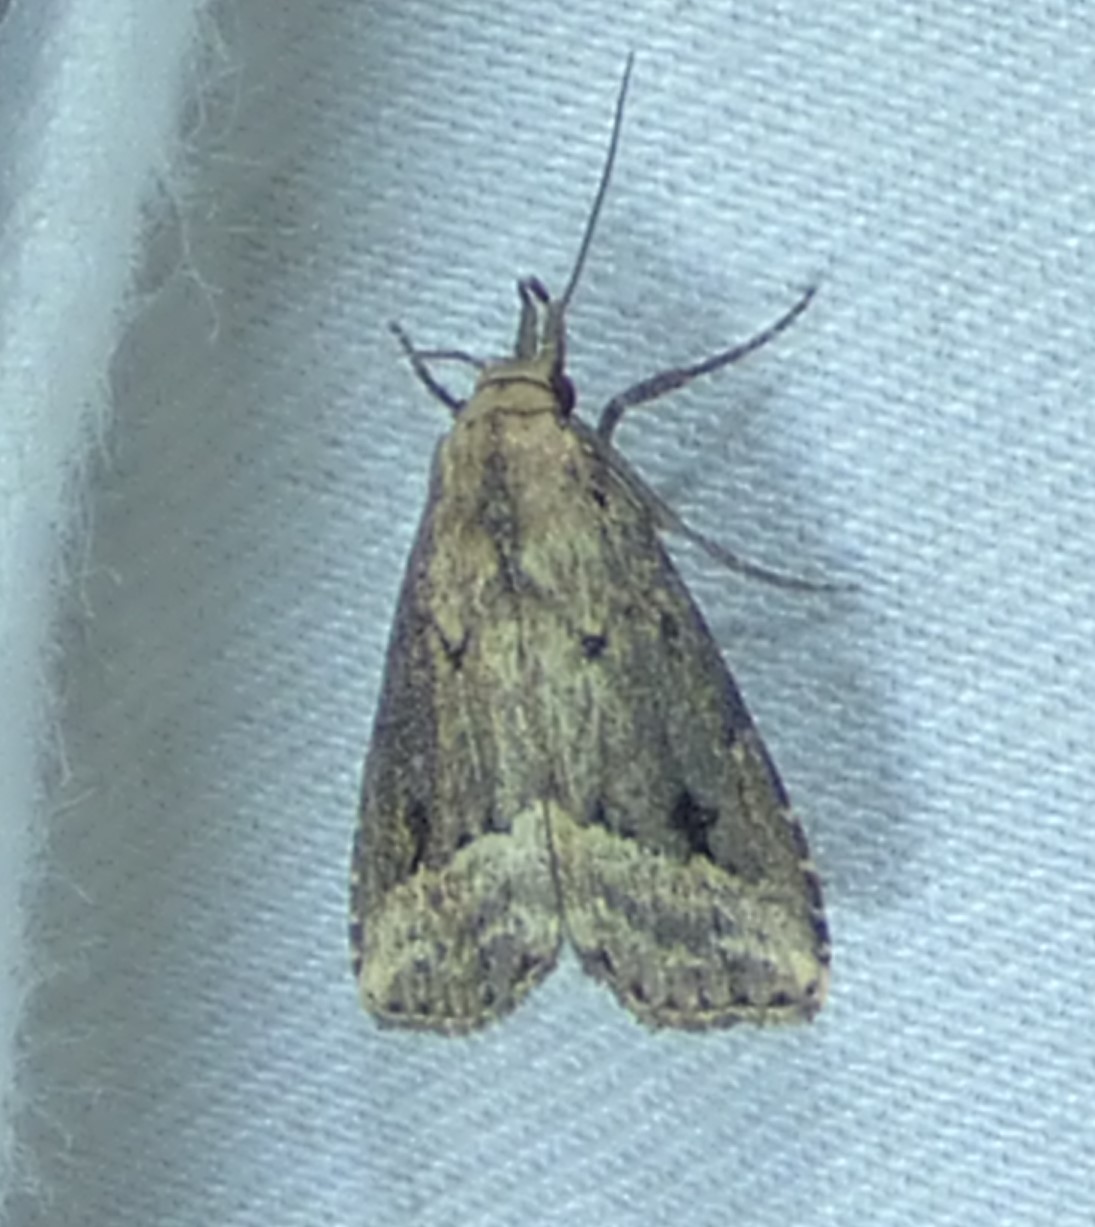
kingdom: Animalia
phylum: Arthropoda
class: Insecta
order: Lepidoptera
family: Erebidae
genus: Schrankia
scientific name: Schrankia
